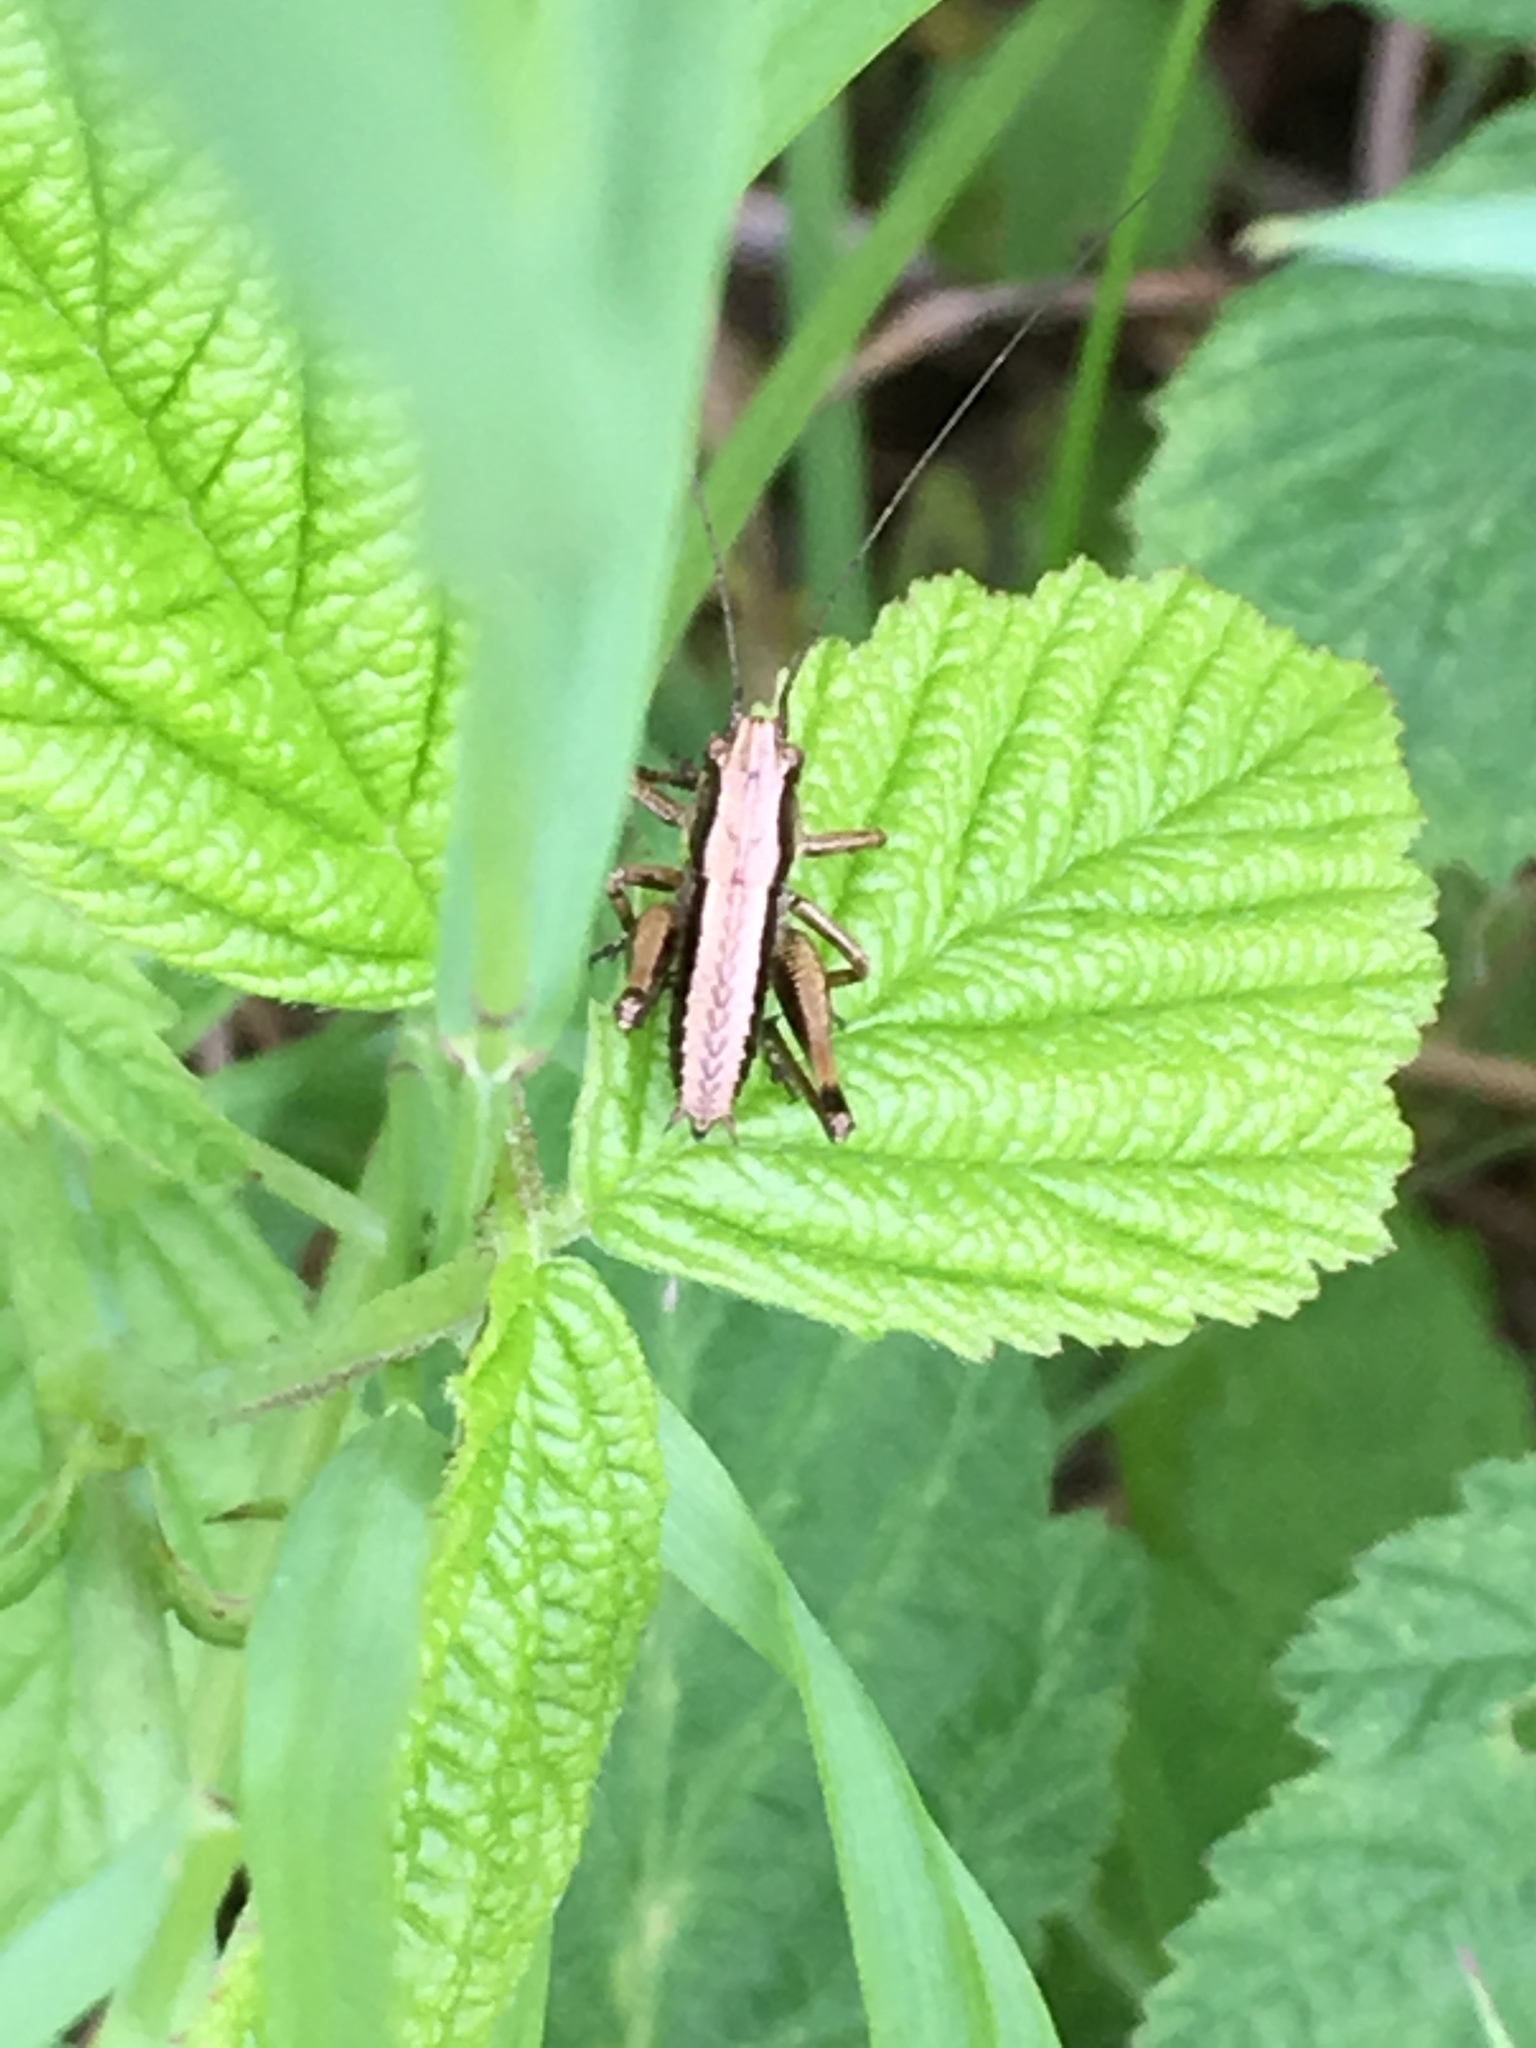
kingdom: Animalia
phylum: Arthropoda
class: Insecta
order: Orthoptera
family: Tettigoniidae
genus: Pholidoptera
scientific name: Pholidoptera griseoaptera
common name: Dark bush-cricket
